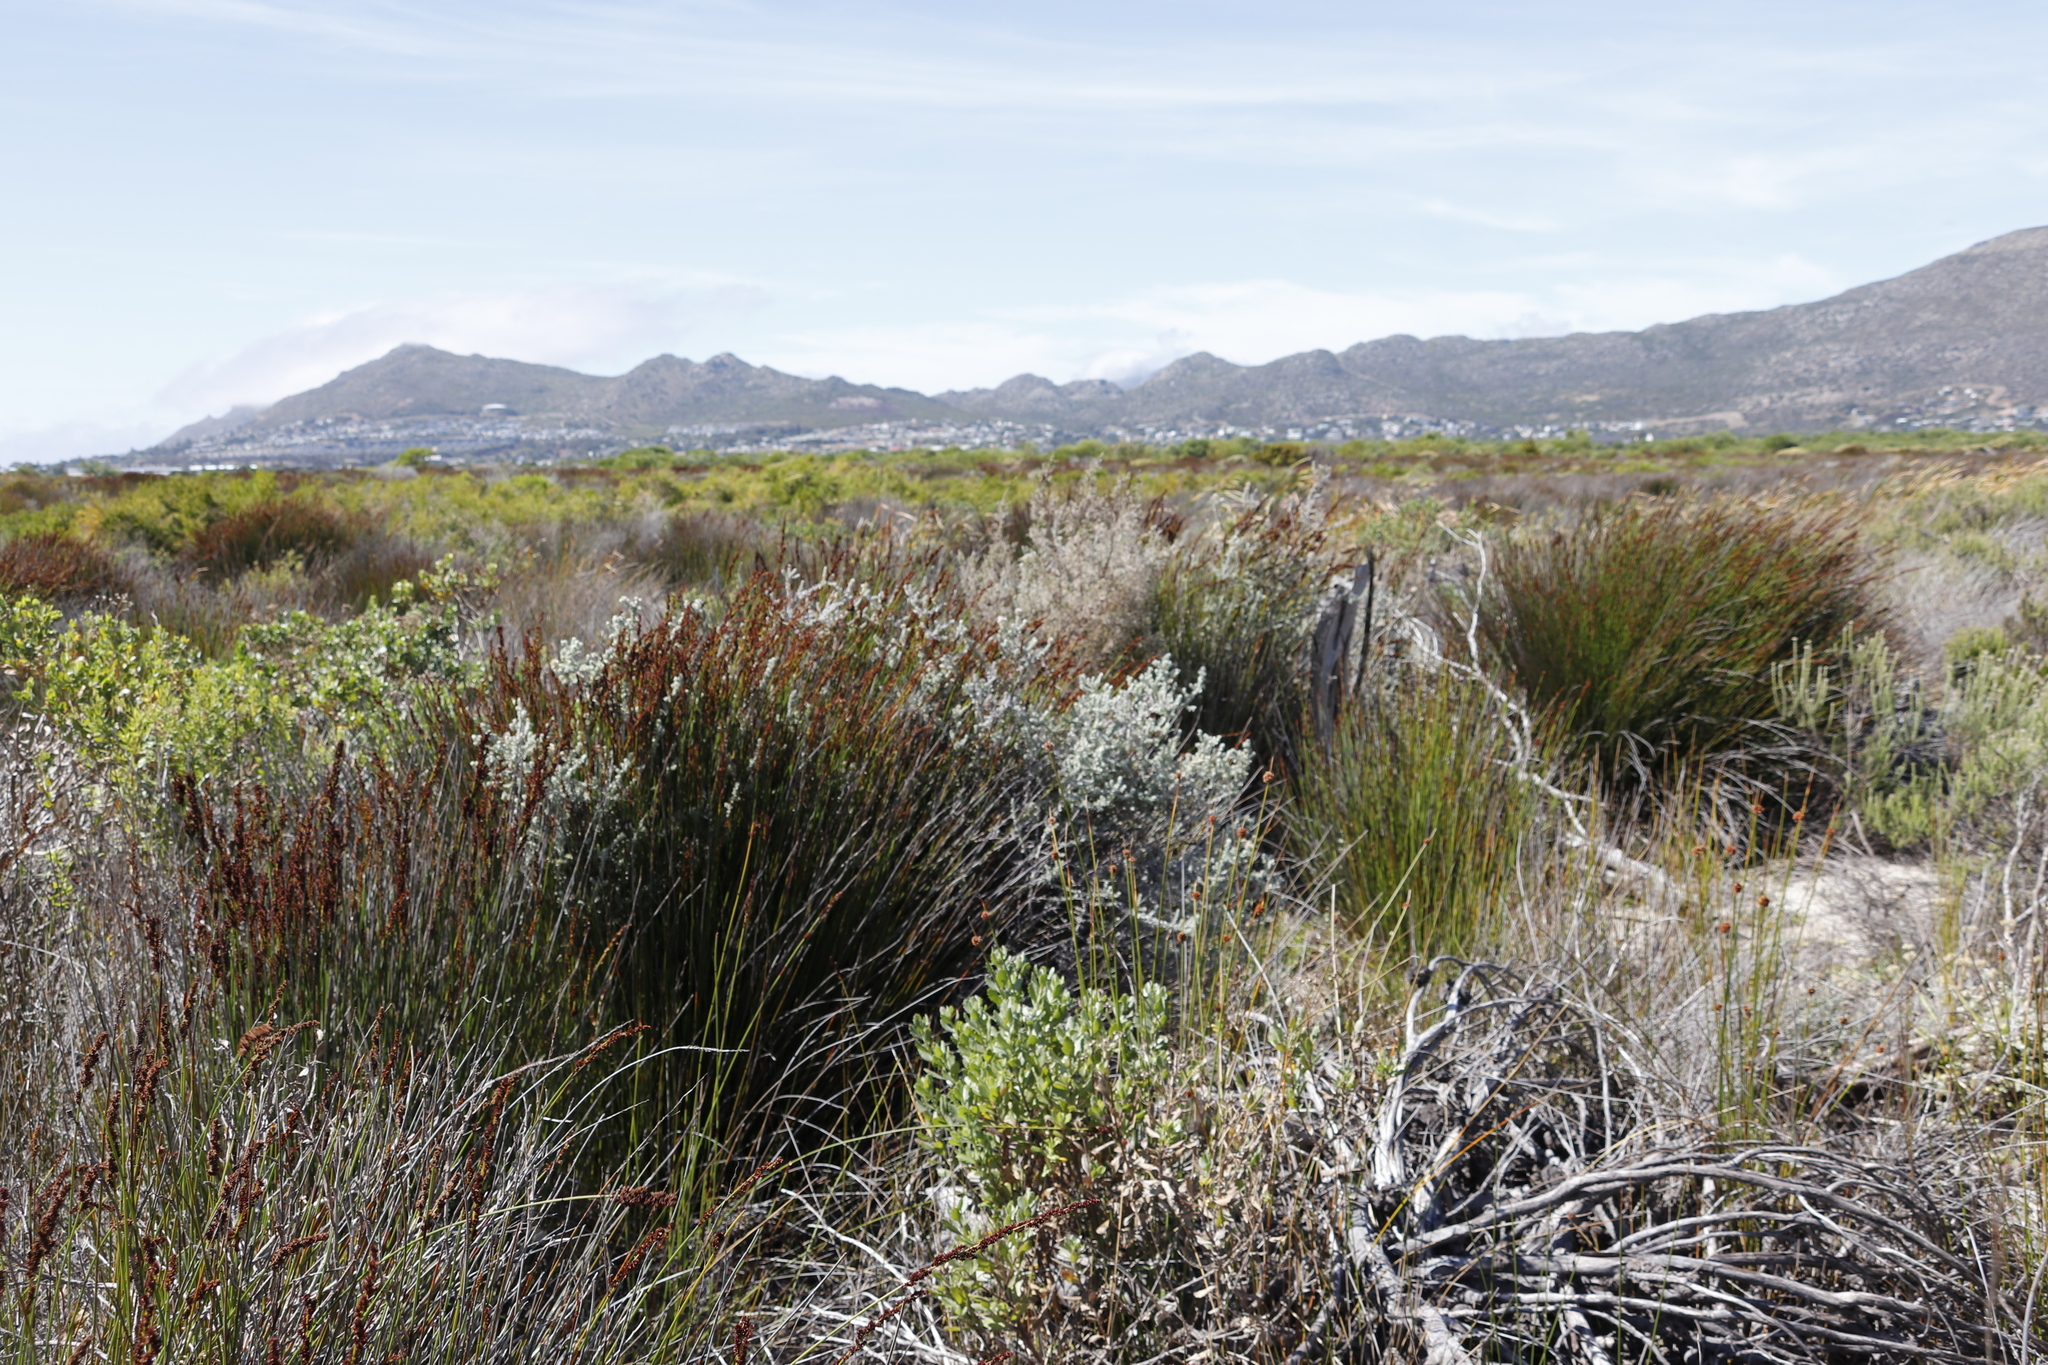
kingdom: Plantae
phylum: Tracheophyta
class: Liliopsida
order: Poales
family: Restionaceae
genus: Elegia
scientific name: Elegia tectorum
